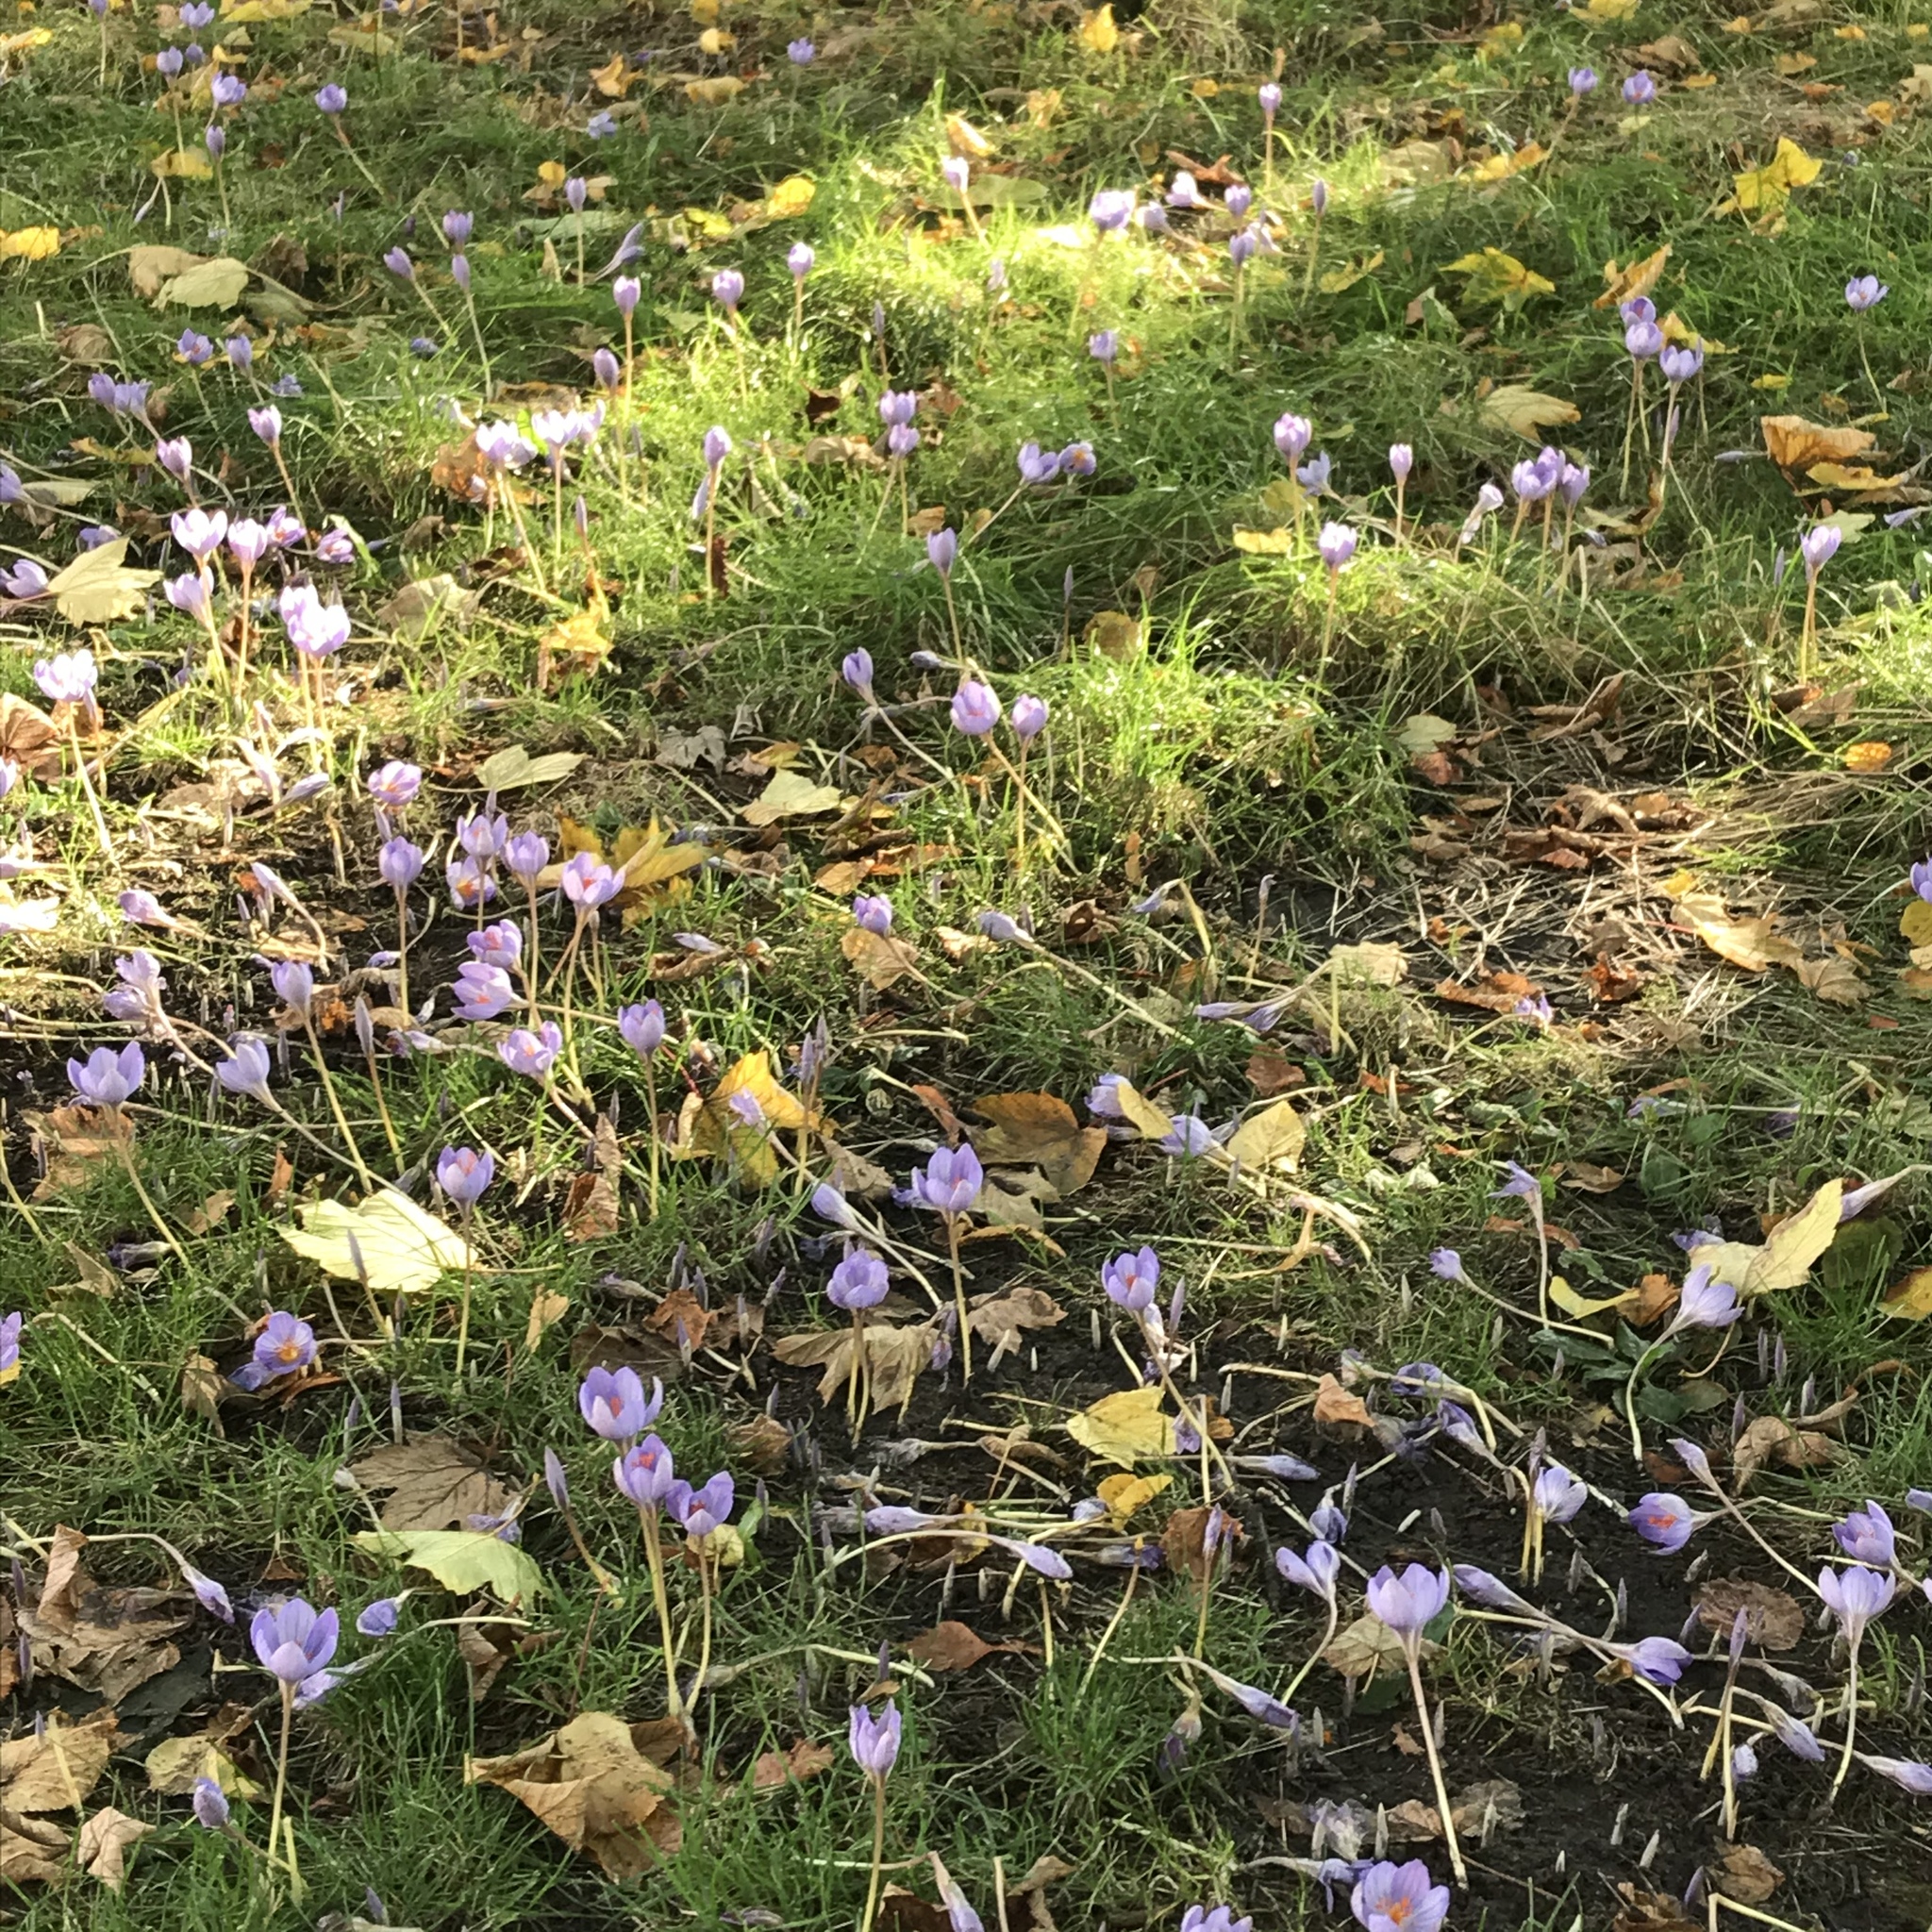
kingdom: Plantae
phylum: Tracheophyta
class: Liliopsida
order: Asparagales
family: Iridaceae
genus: Crocus
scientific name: Crocus speciosus
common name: Bieberstein's crocus
